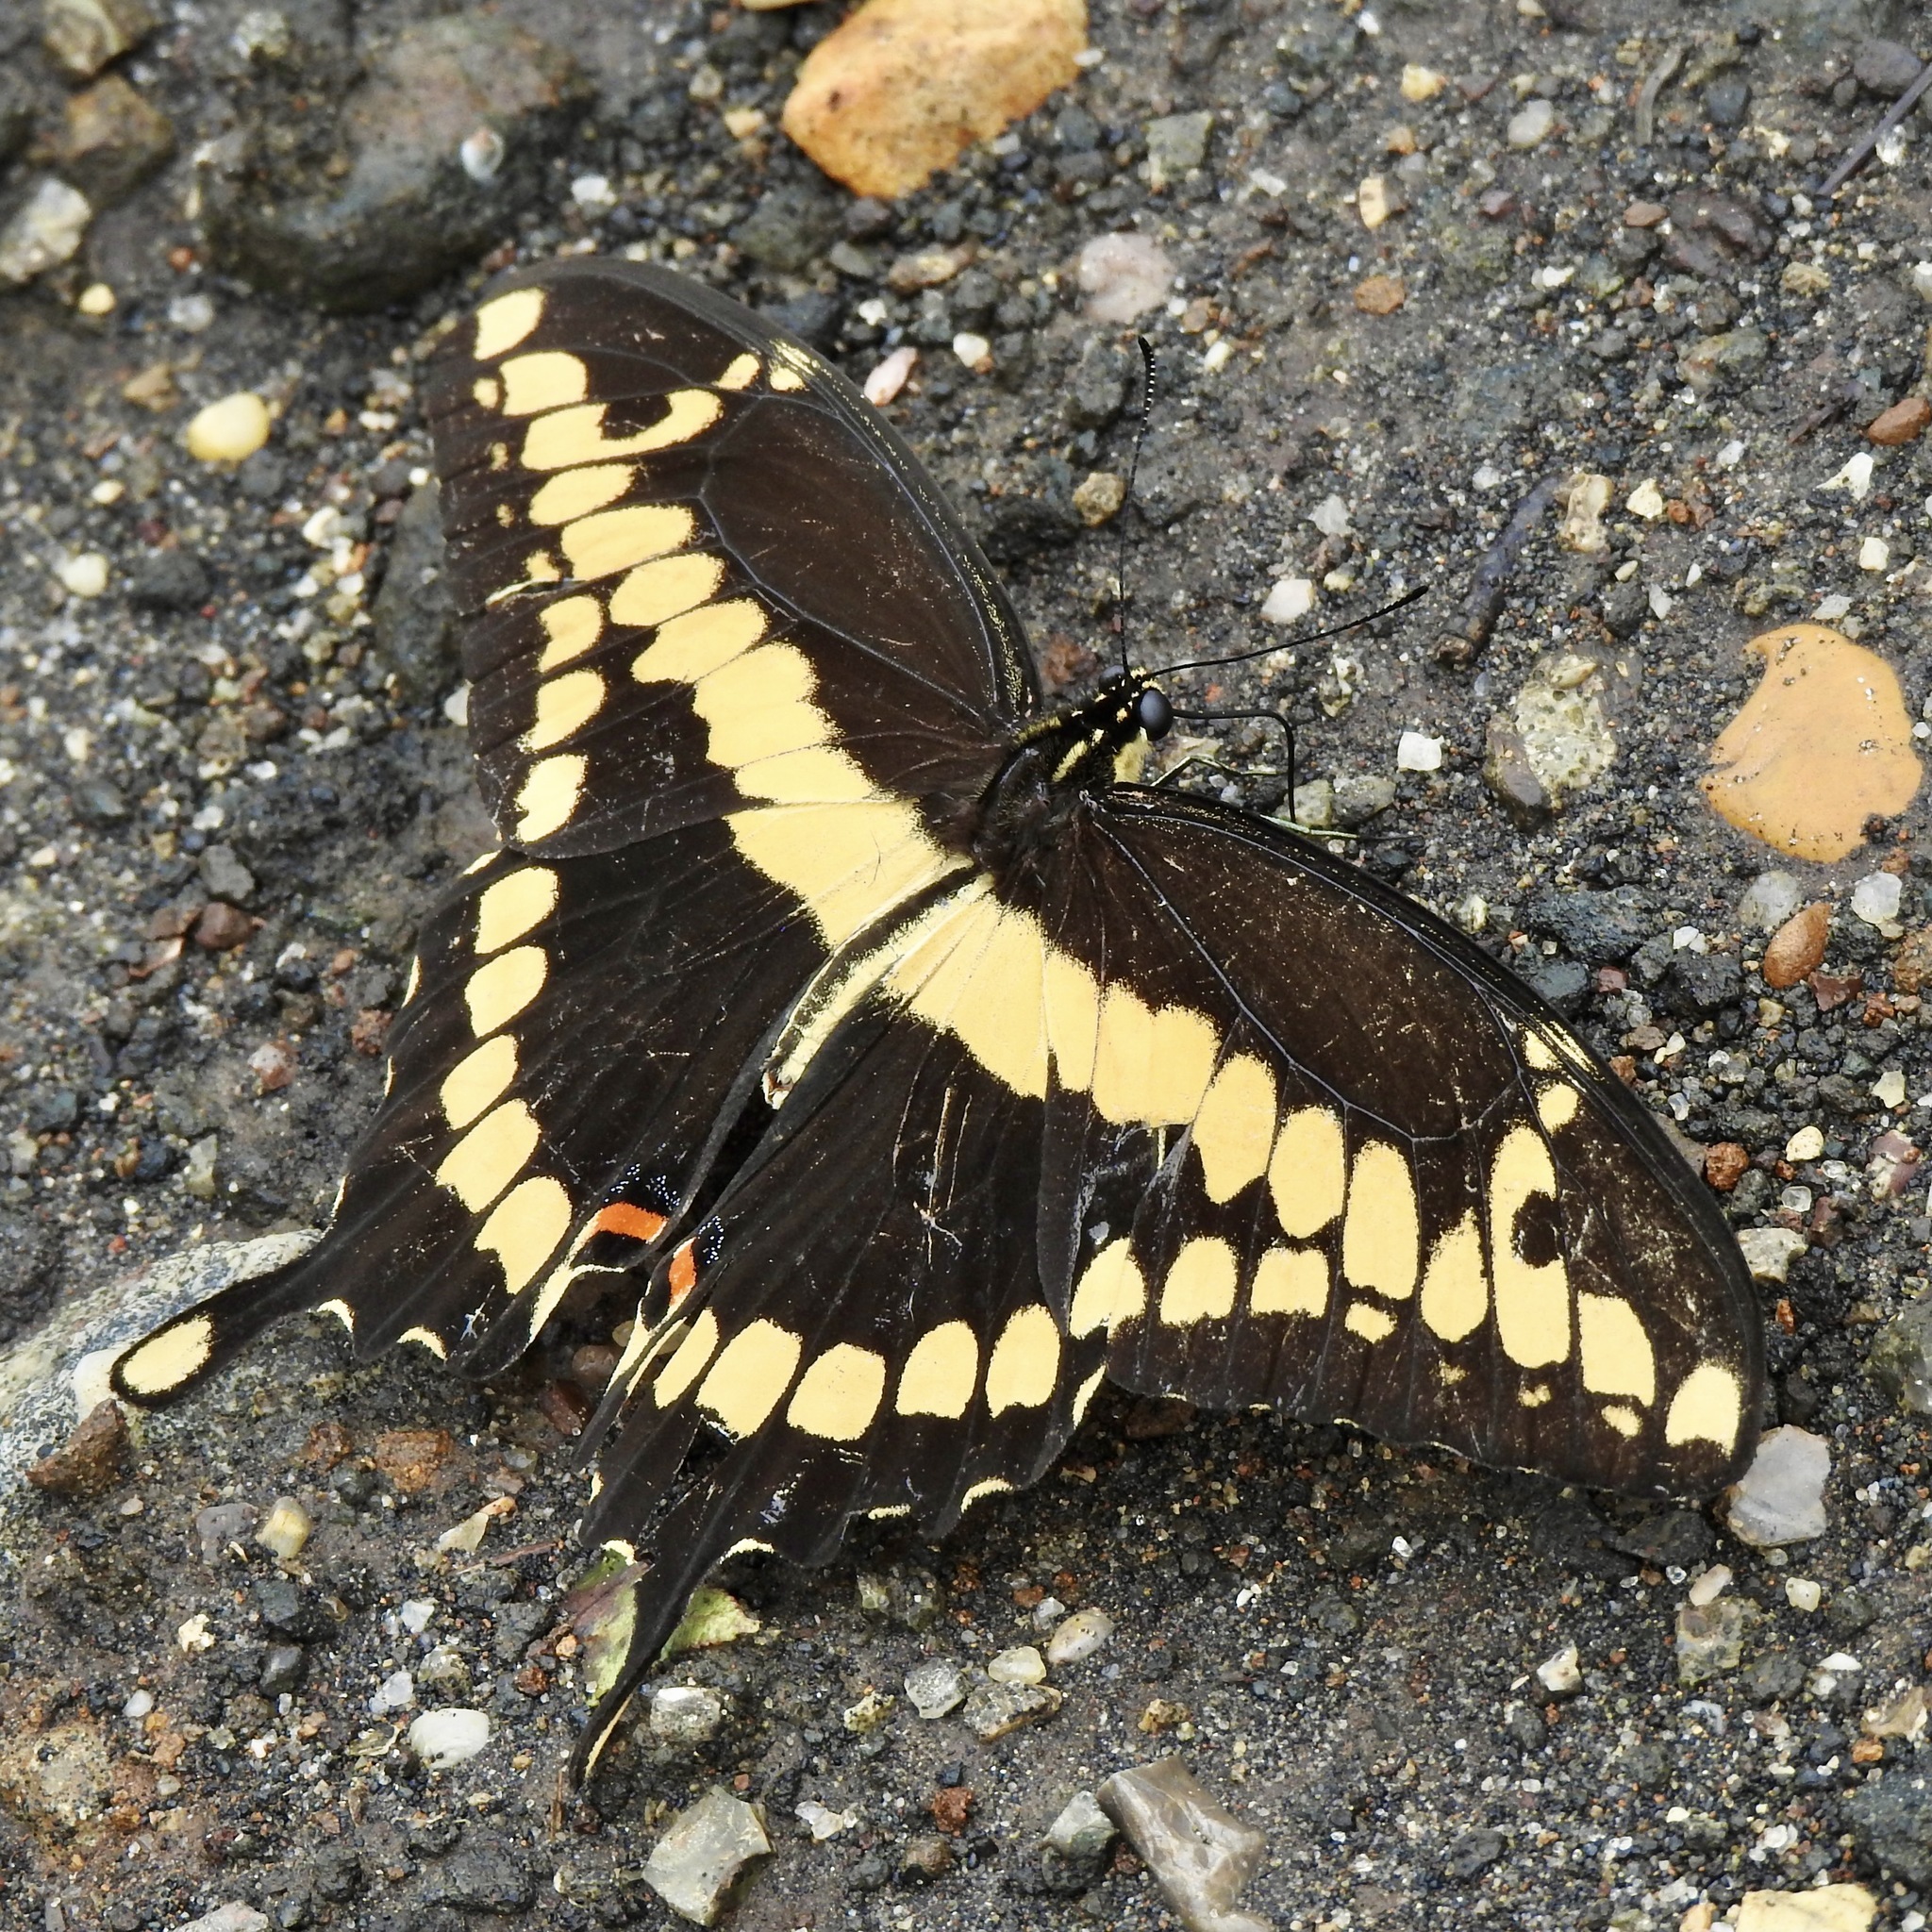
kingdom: Animalia
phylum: Arthropoda
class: Insecta
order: Lepidoptera
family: Papilionidae
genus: Papilio
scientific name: Papilio cresphontes
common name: Giant swallowtail
